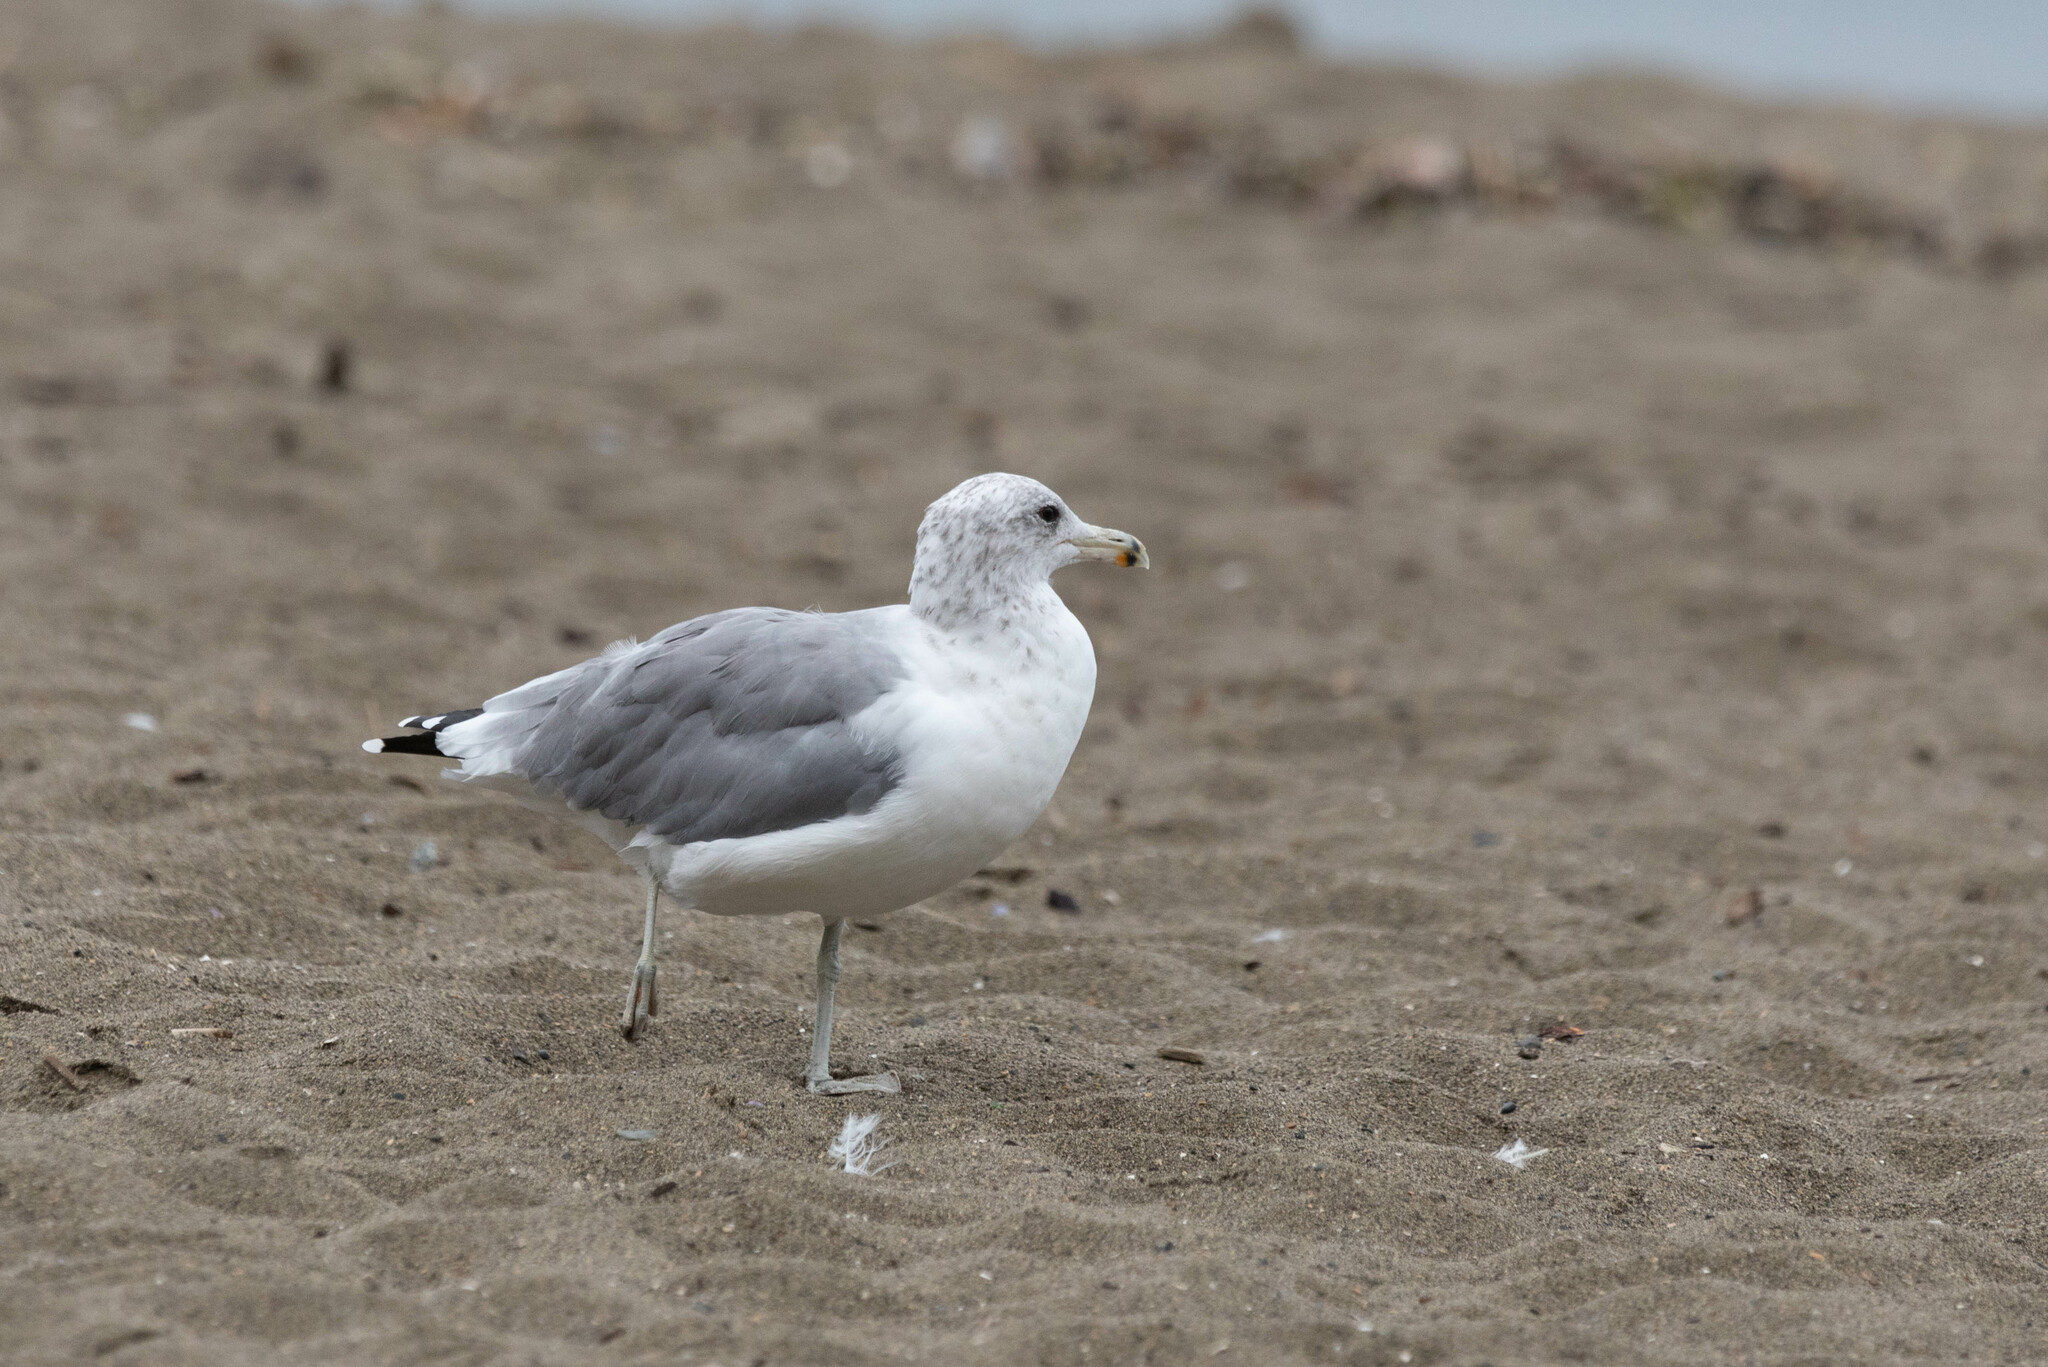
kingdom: Animalia
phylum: Chordata
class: Aves
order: Charadriiformes
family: Laridae
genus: Larus
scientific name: Larus californicus
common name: California gull
